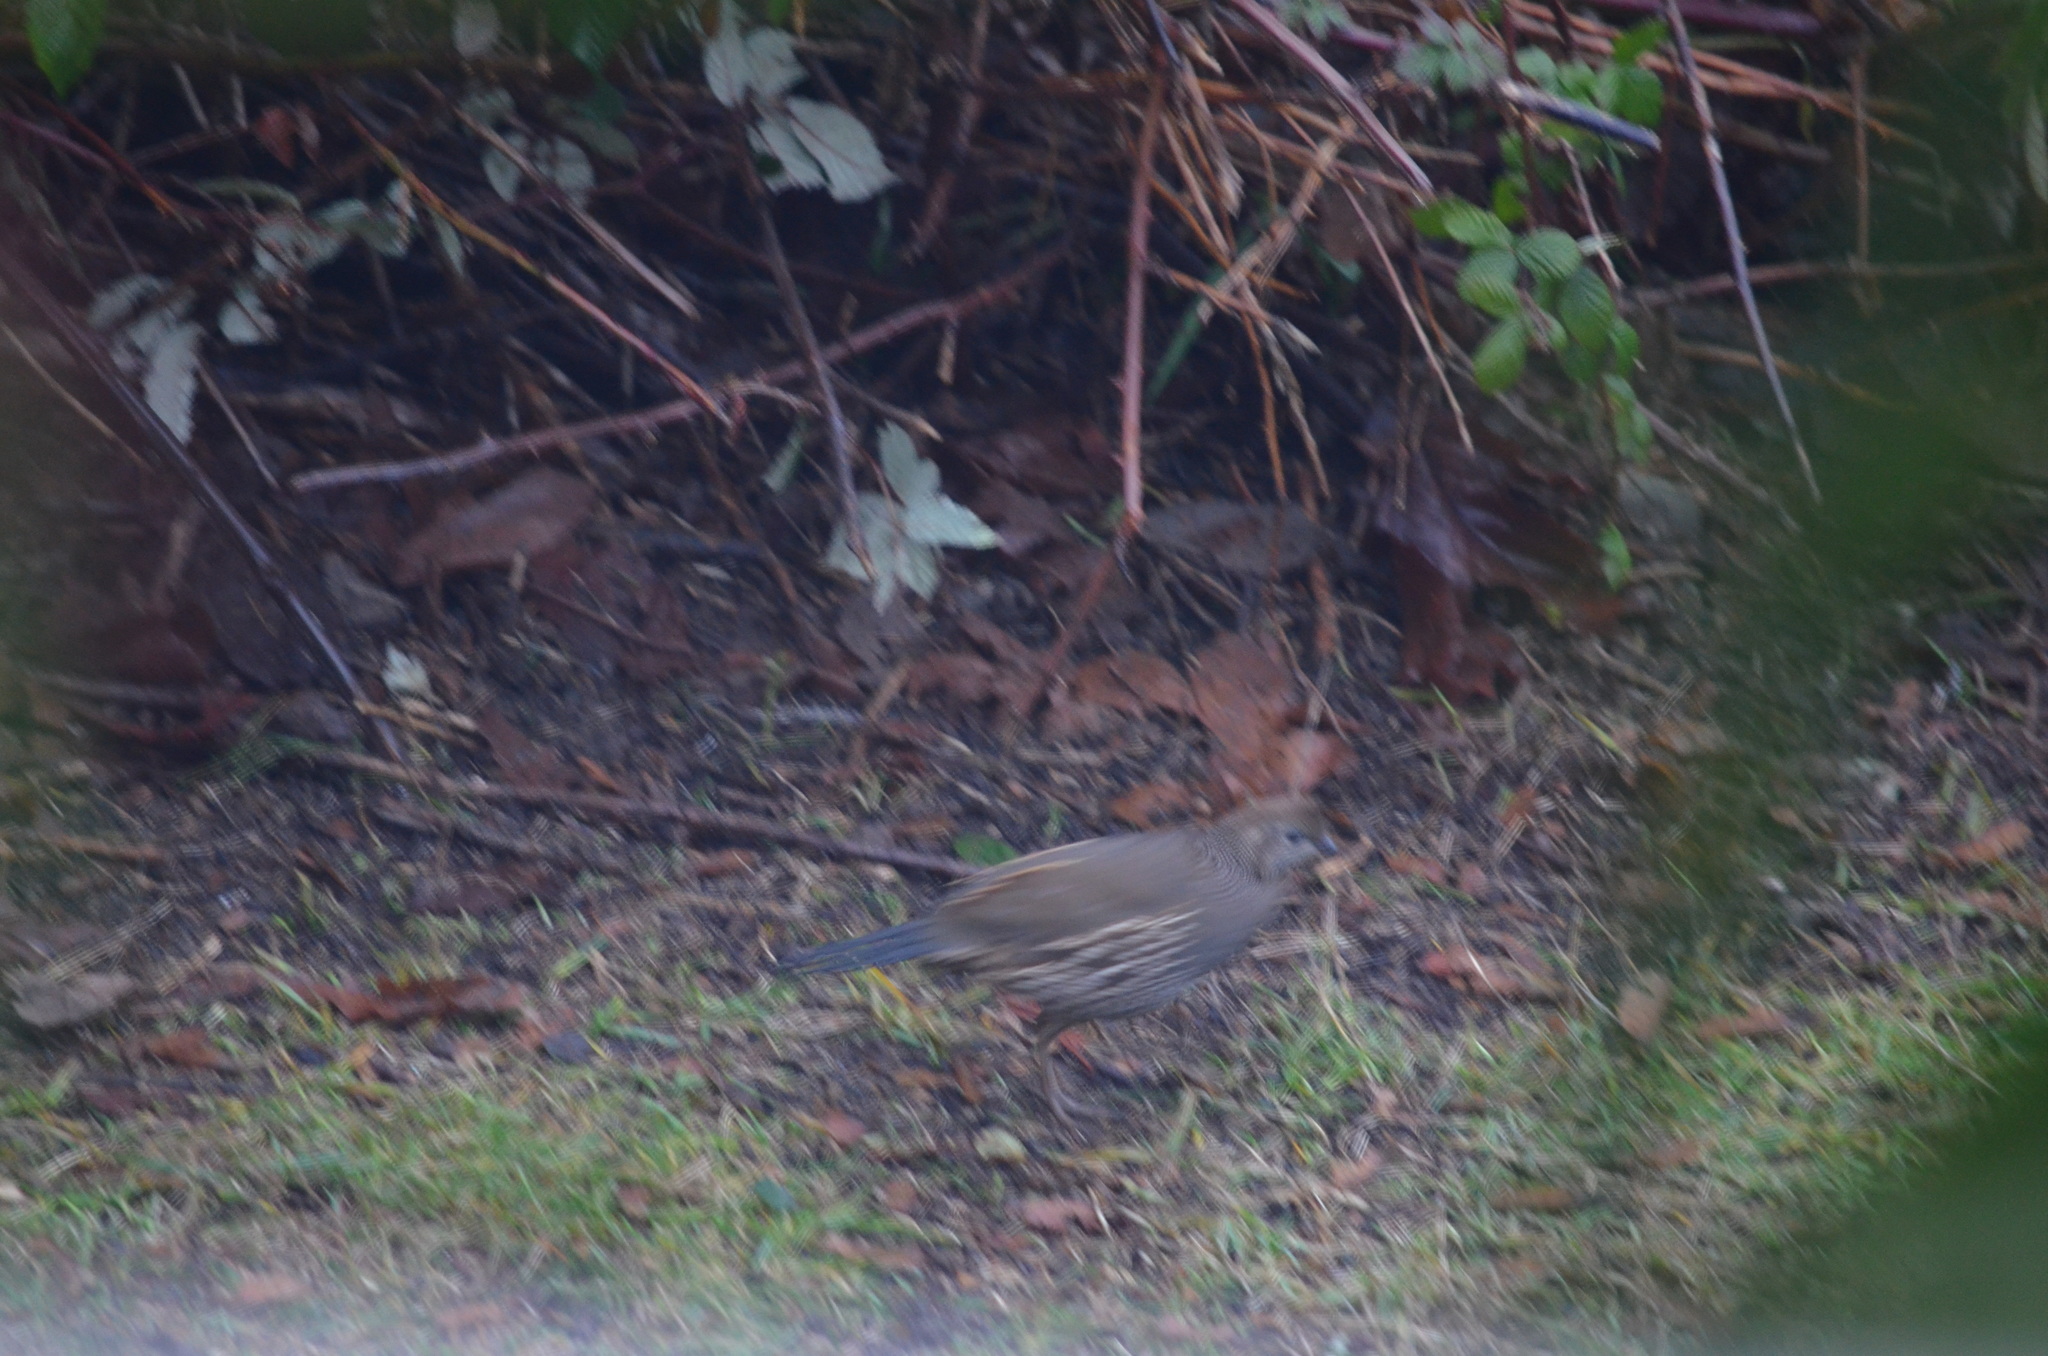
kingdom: Animalia
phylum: Chordata
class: Aves
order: Galliformes
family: Odontophoridae
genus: Callipepla
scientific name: Callipepla californica
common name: California quail
